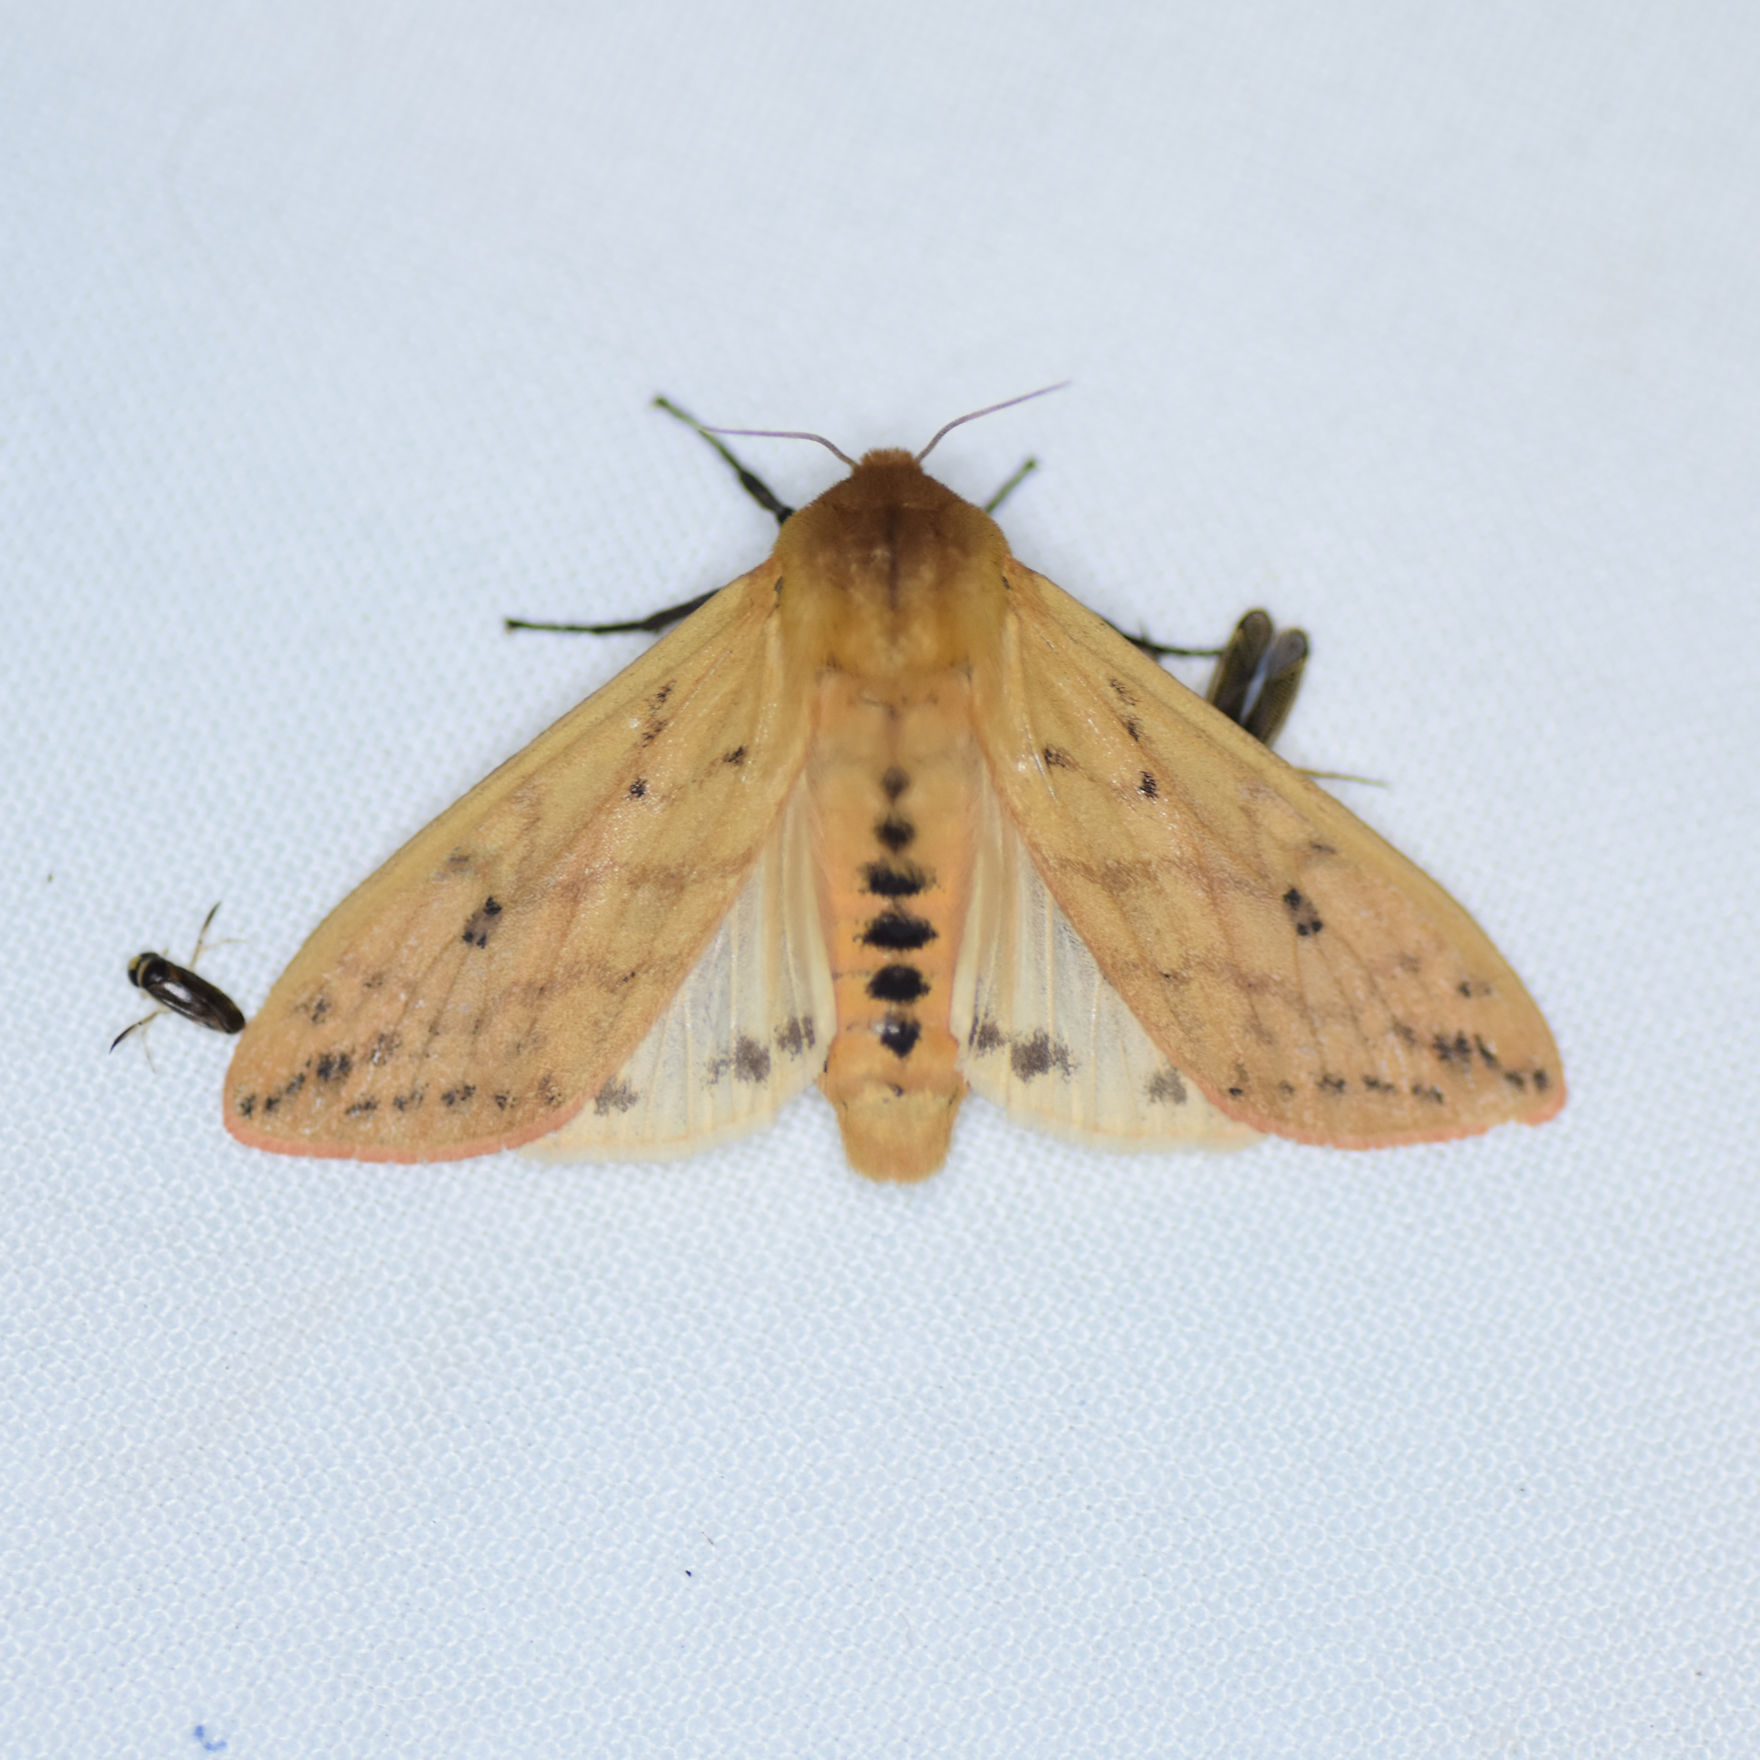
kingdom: Animalia
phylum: Arthropoda
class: Insecta
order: Lepidoptera
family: Erebidae
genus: Pyrrharctia
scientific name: Pyrrharctia isabella
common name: Isabella tiger moth
